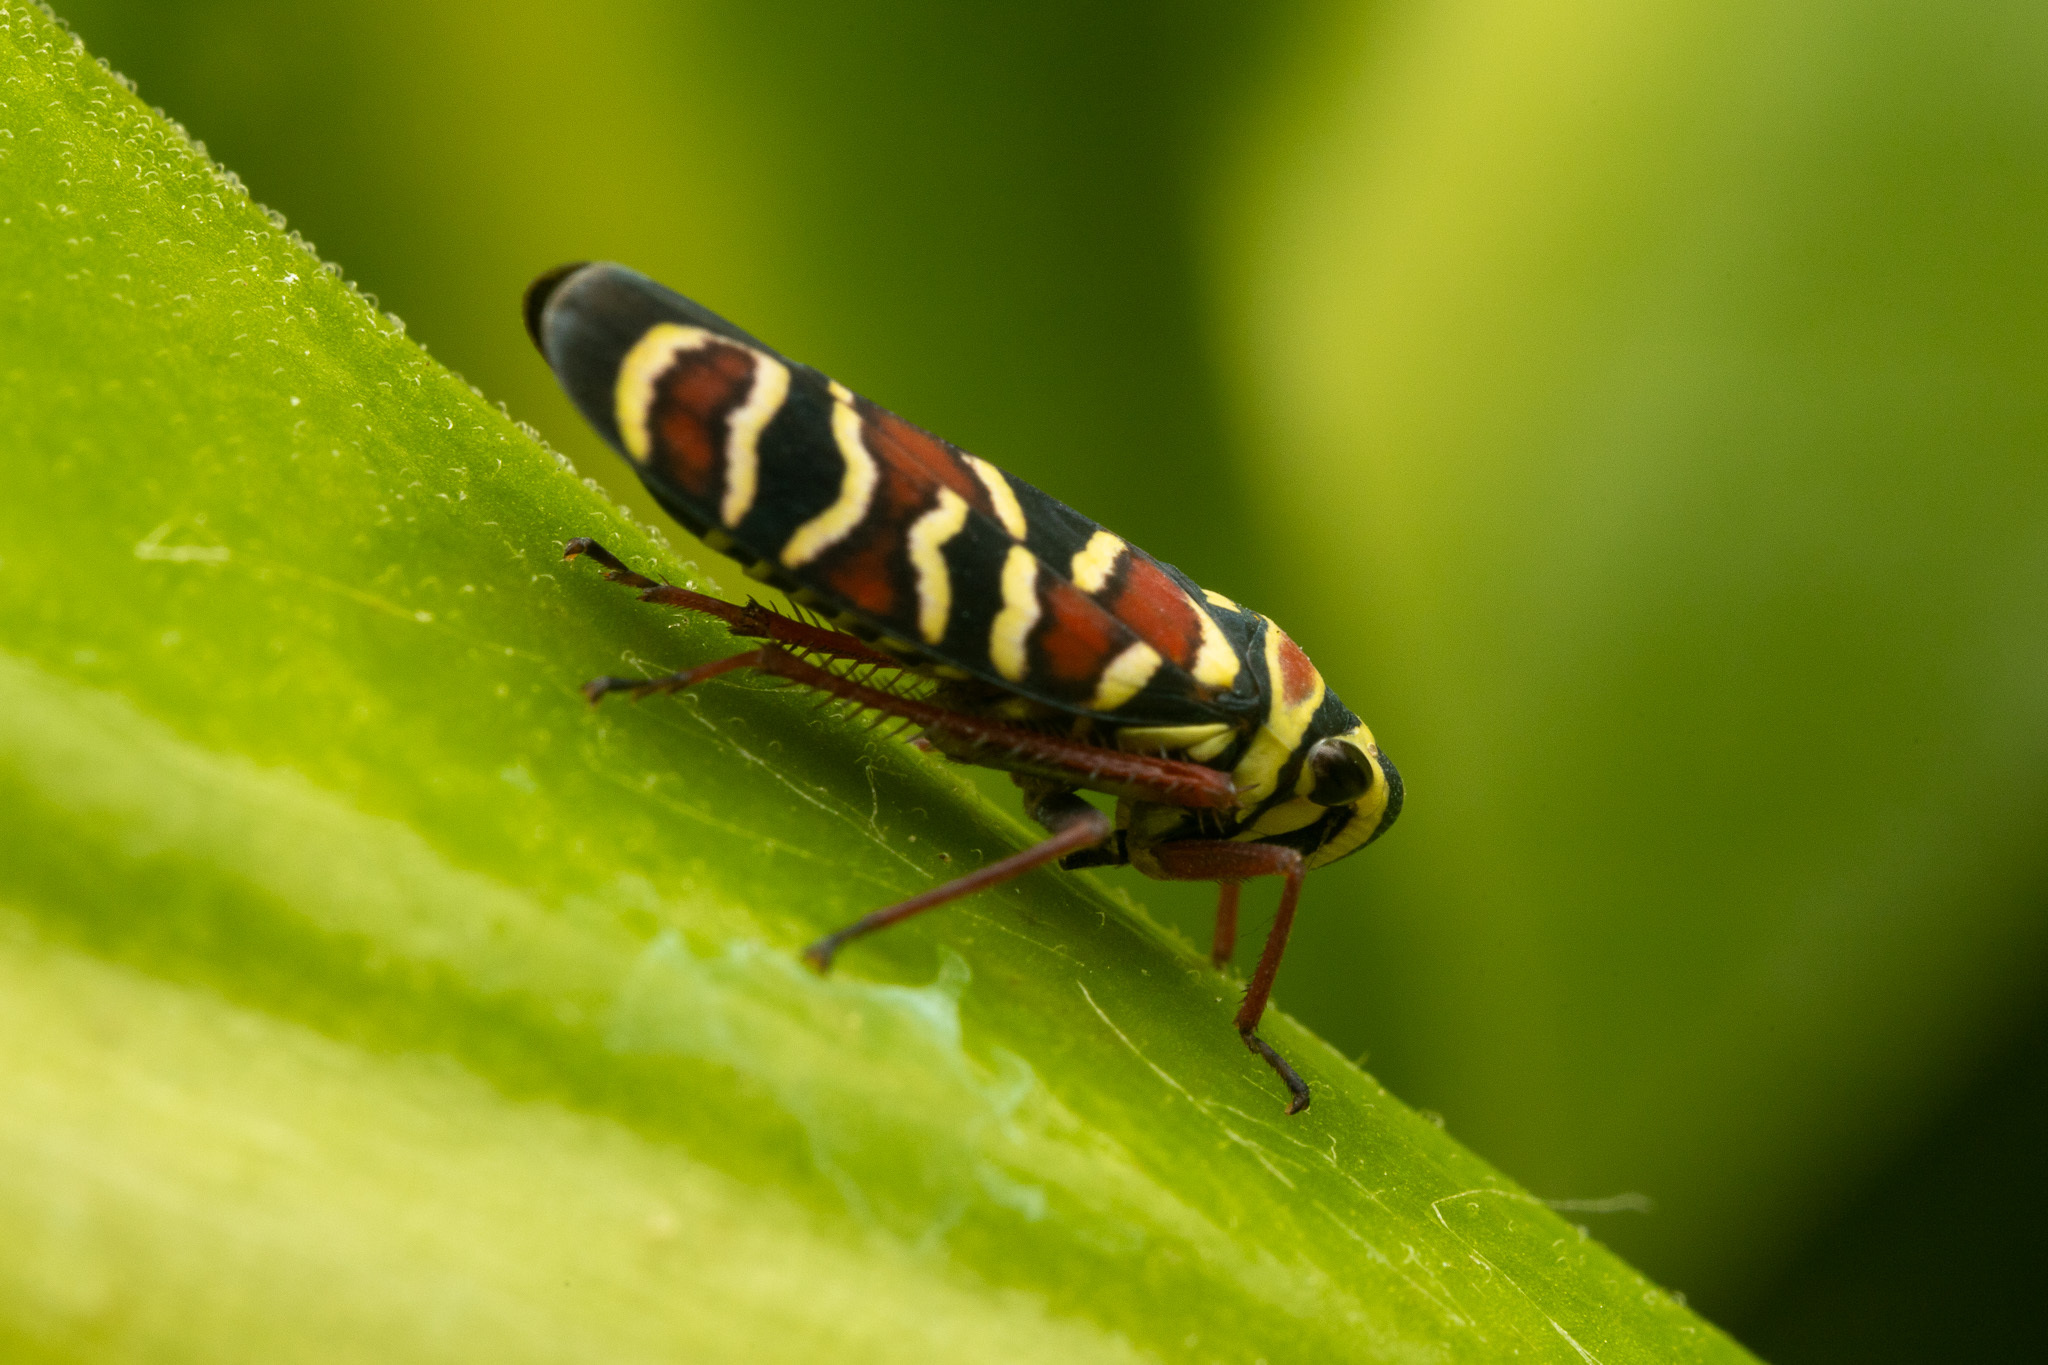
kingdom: Animalia
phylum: Arthropoda
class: Insecta
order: Hemiptera
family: Cicadellidae
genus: Agrosoma
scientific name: Agrosoma placetis
